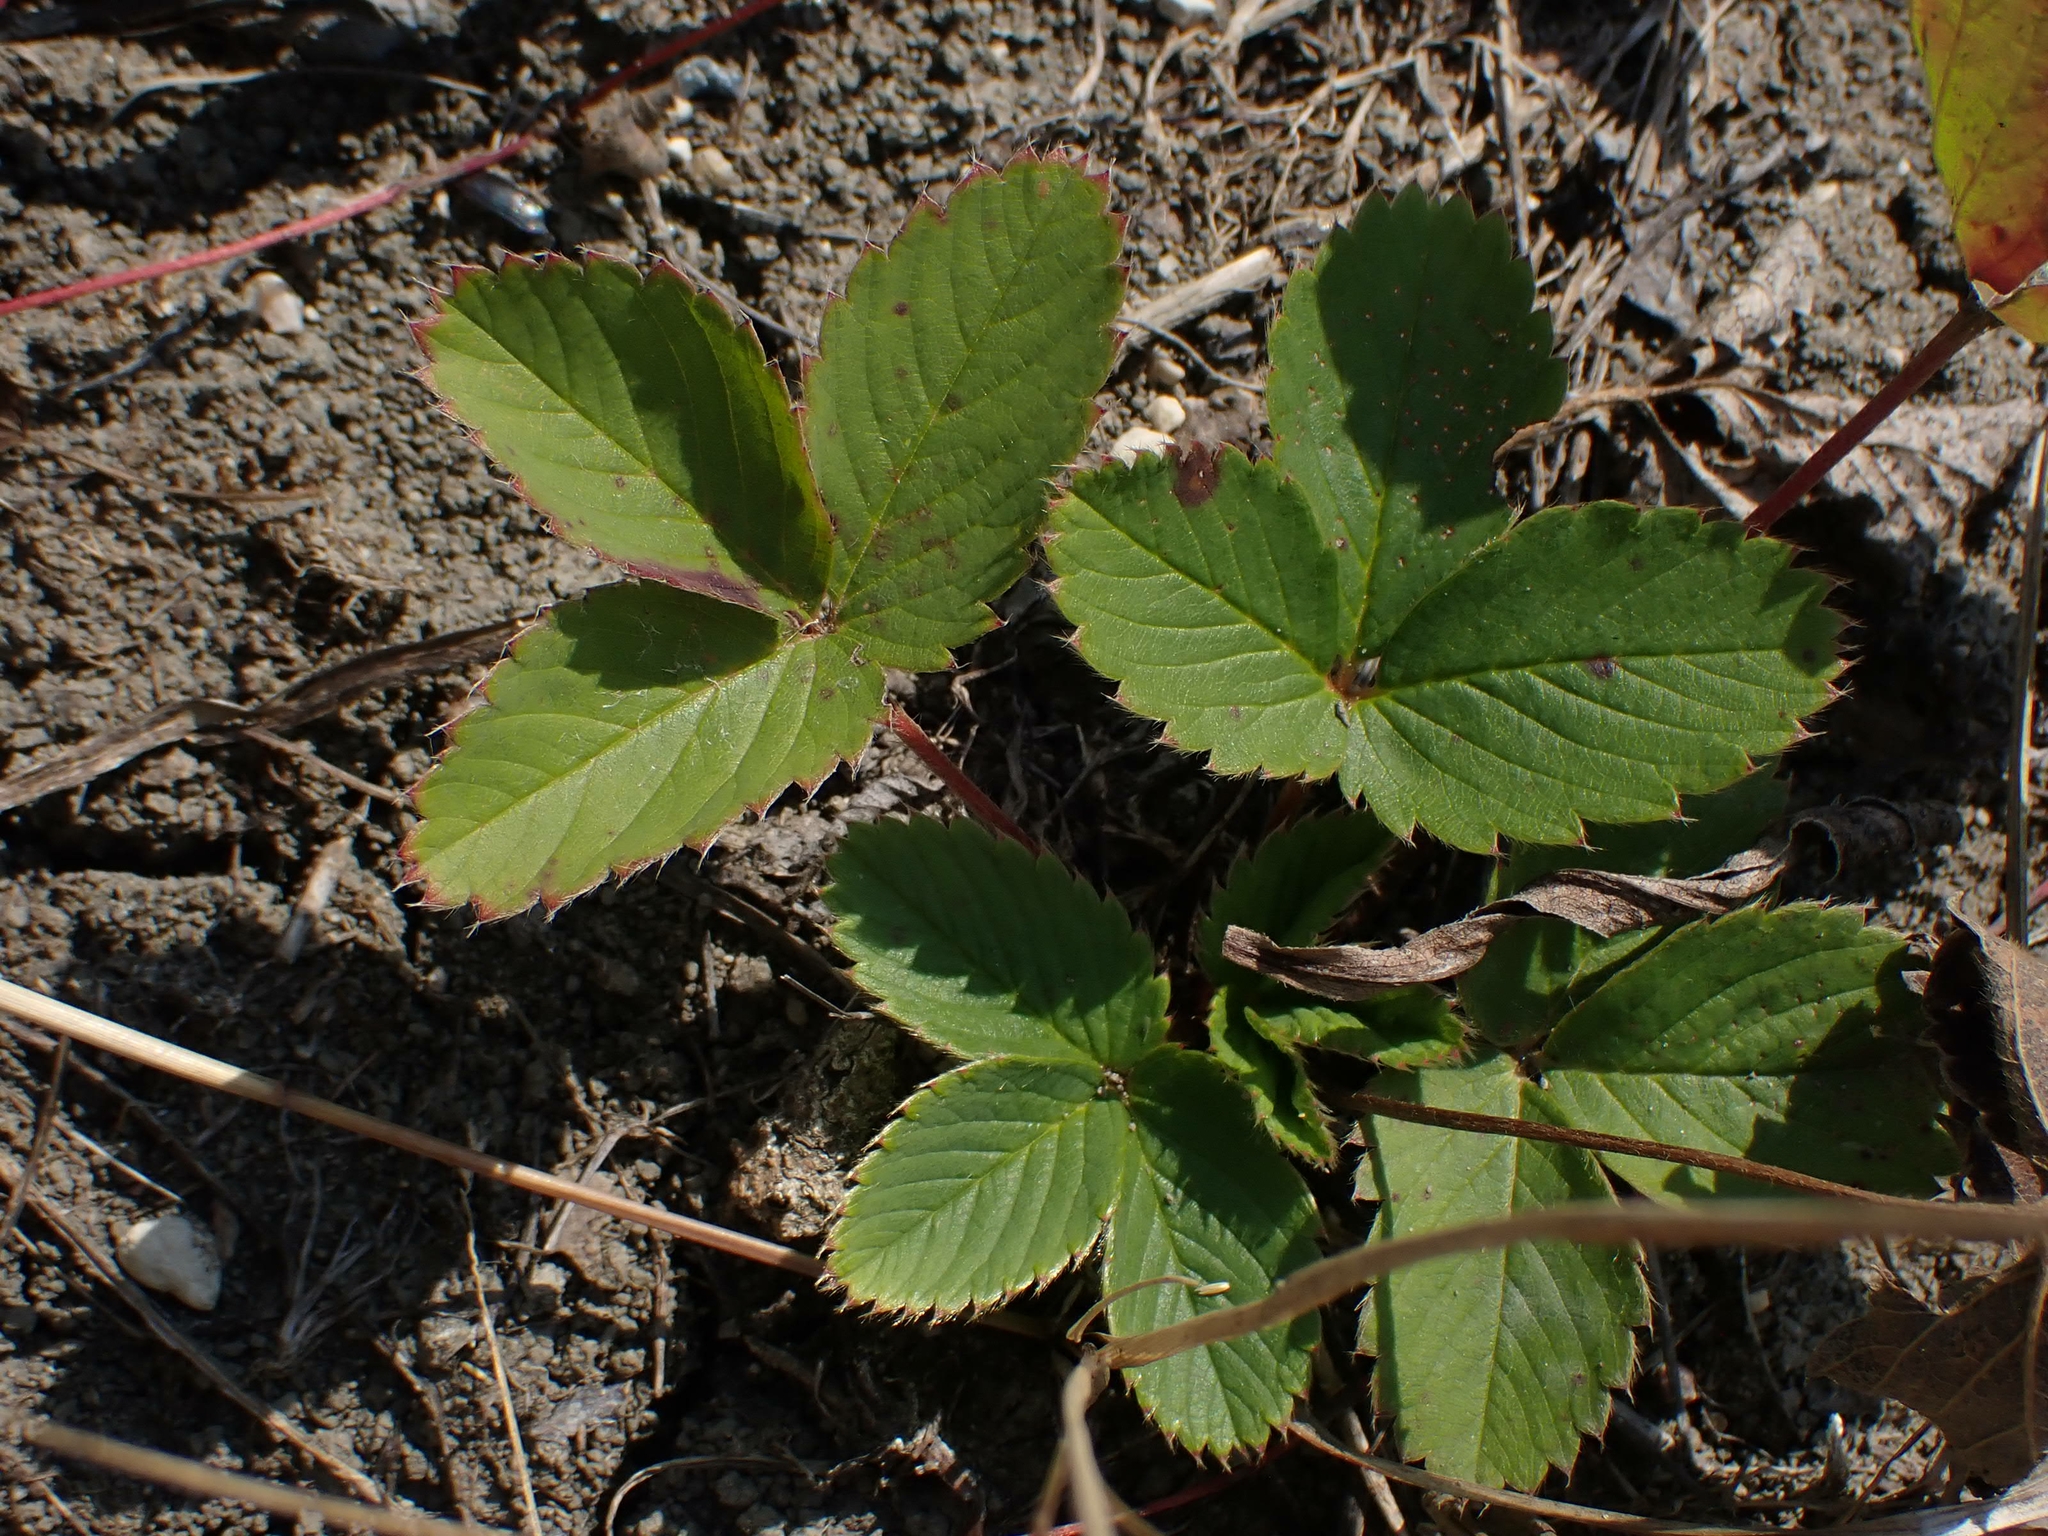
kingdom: Plantae
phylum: Tracheophyta
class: Magnoliopsida
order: Rosales
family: Rosaceae
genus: Fragaria
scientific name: Fragaria virginiana
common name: Thickleaved wild strawberry
